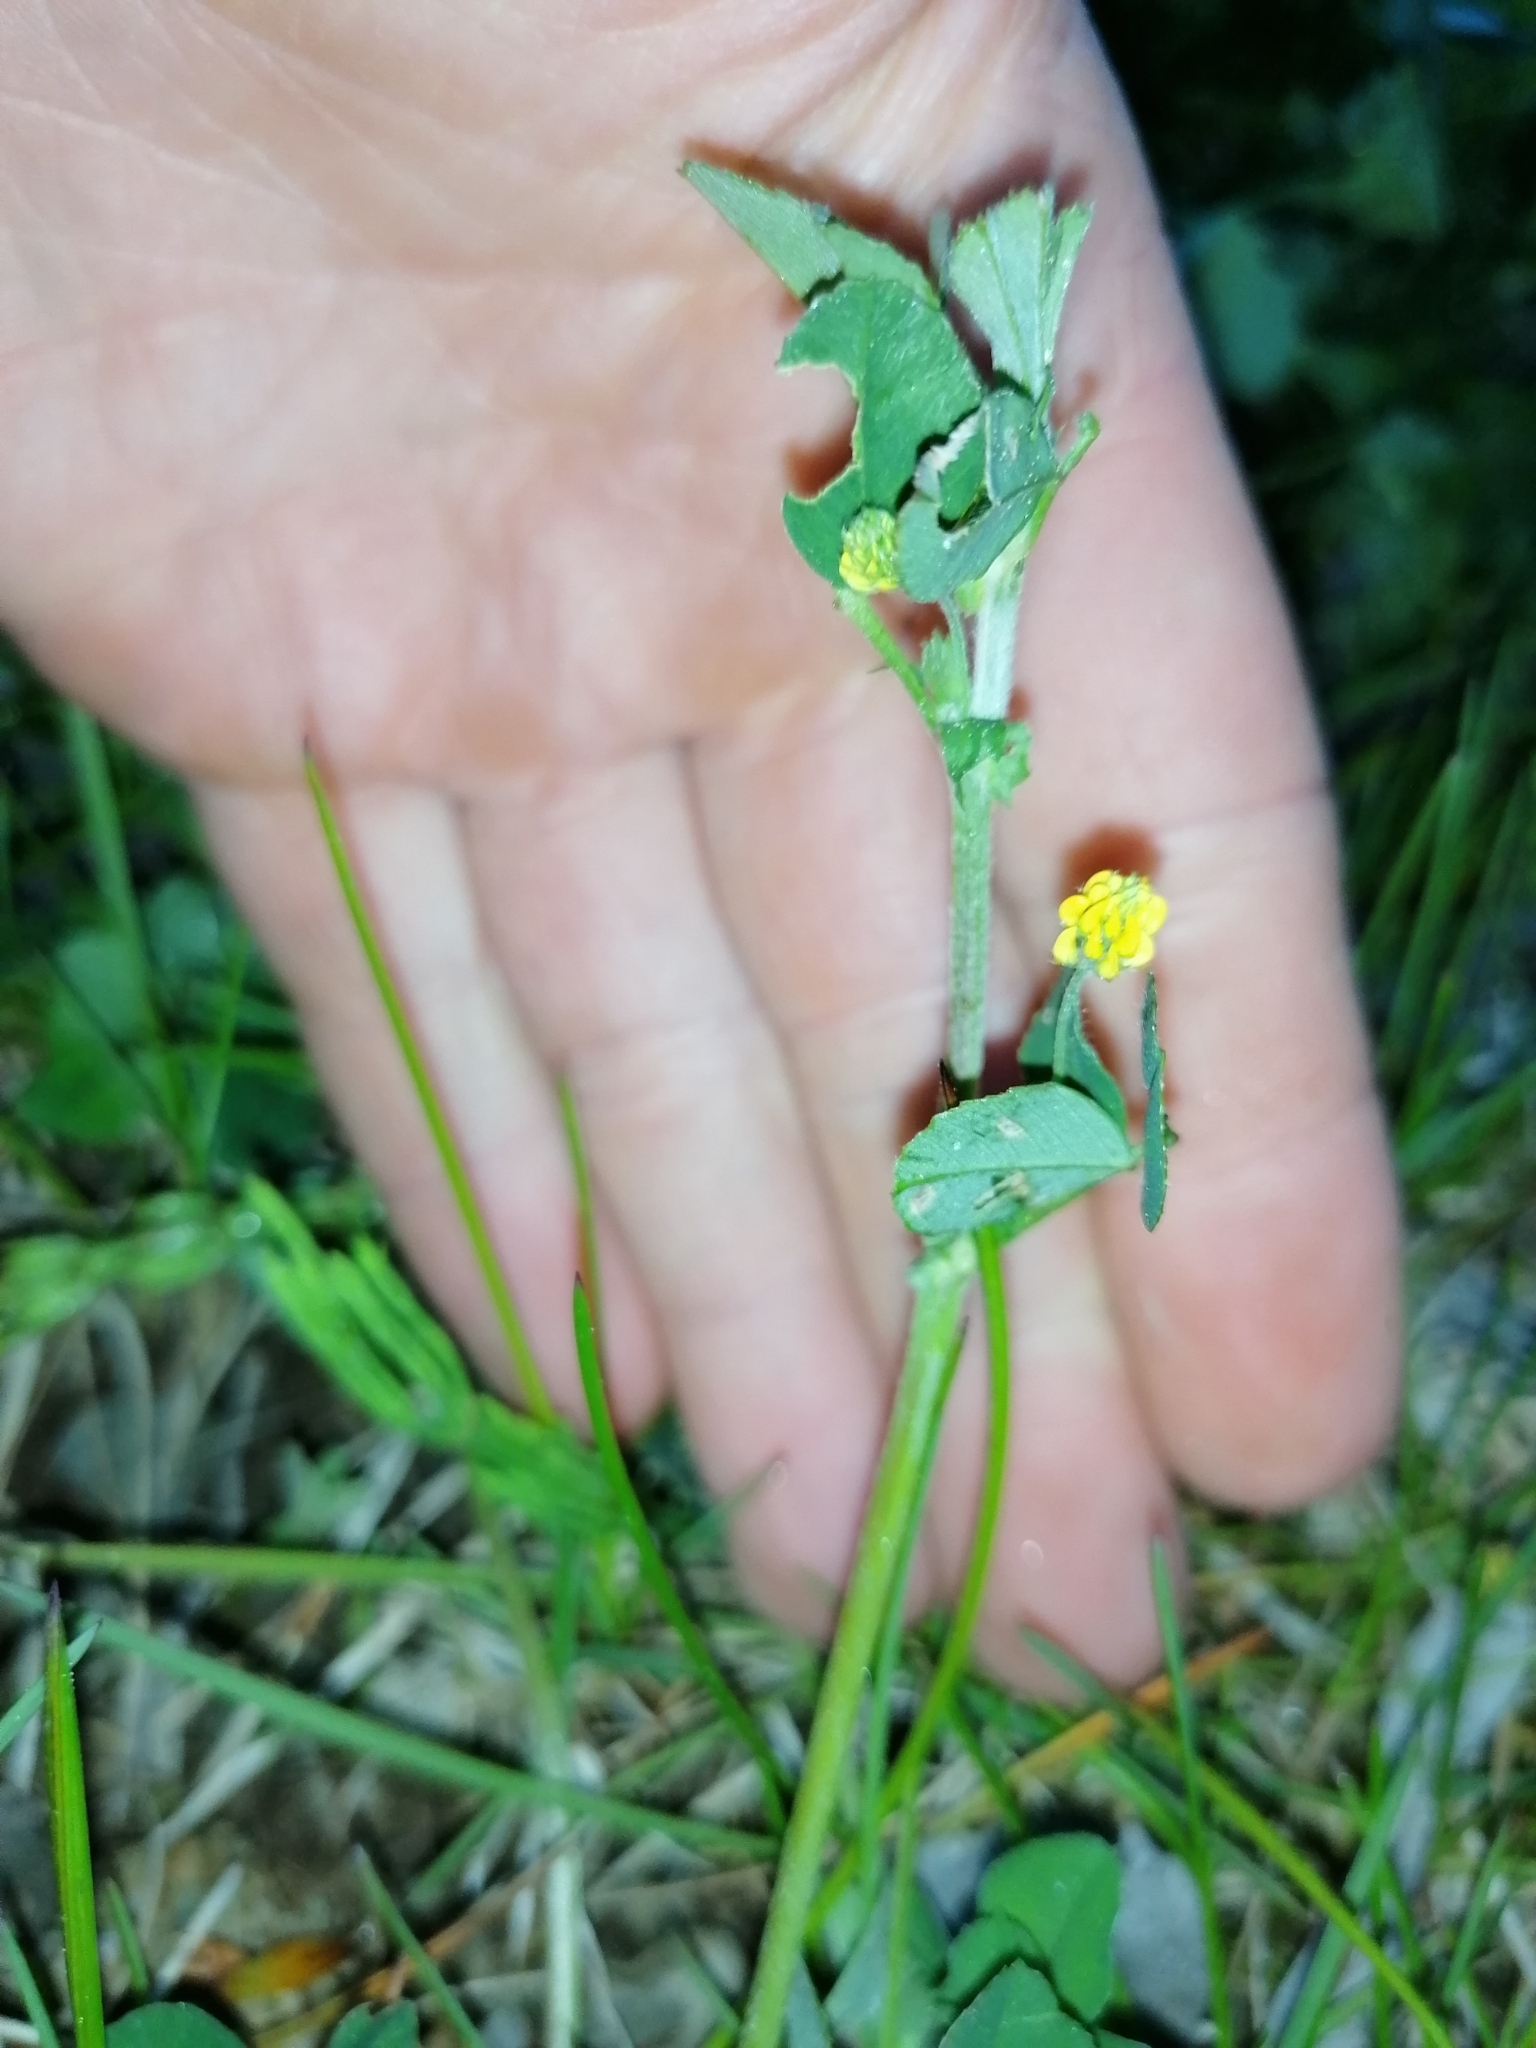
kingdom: Plantae
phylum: Tracheophyta
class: Magnoliopsida
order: Fabales
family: Fabaceae
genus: Medicago
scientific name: Medicago lupulina
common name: Black medick
